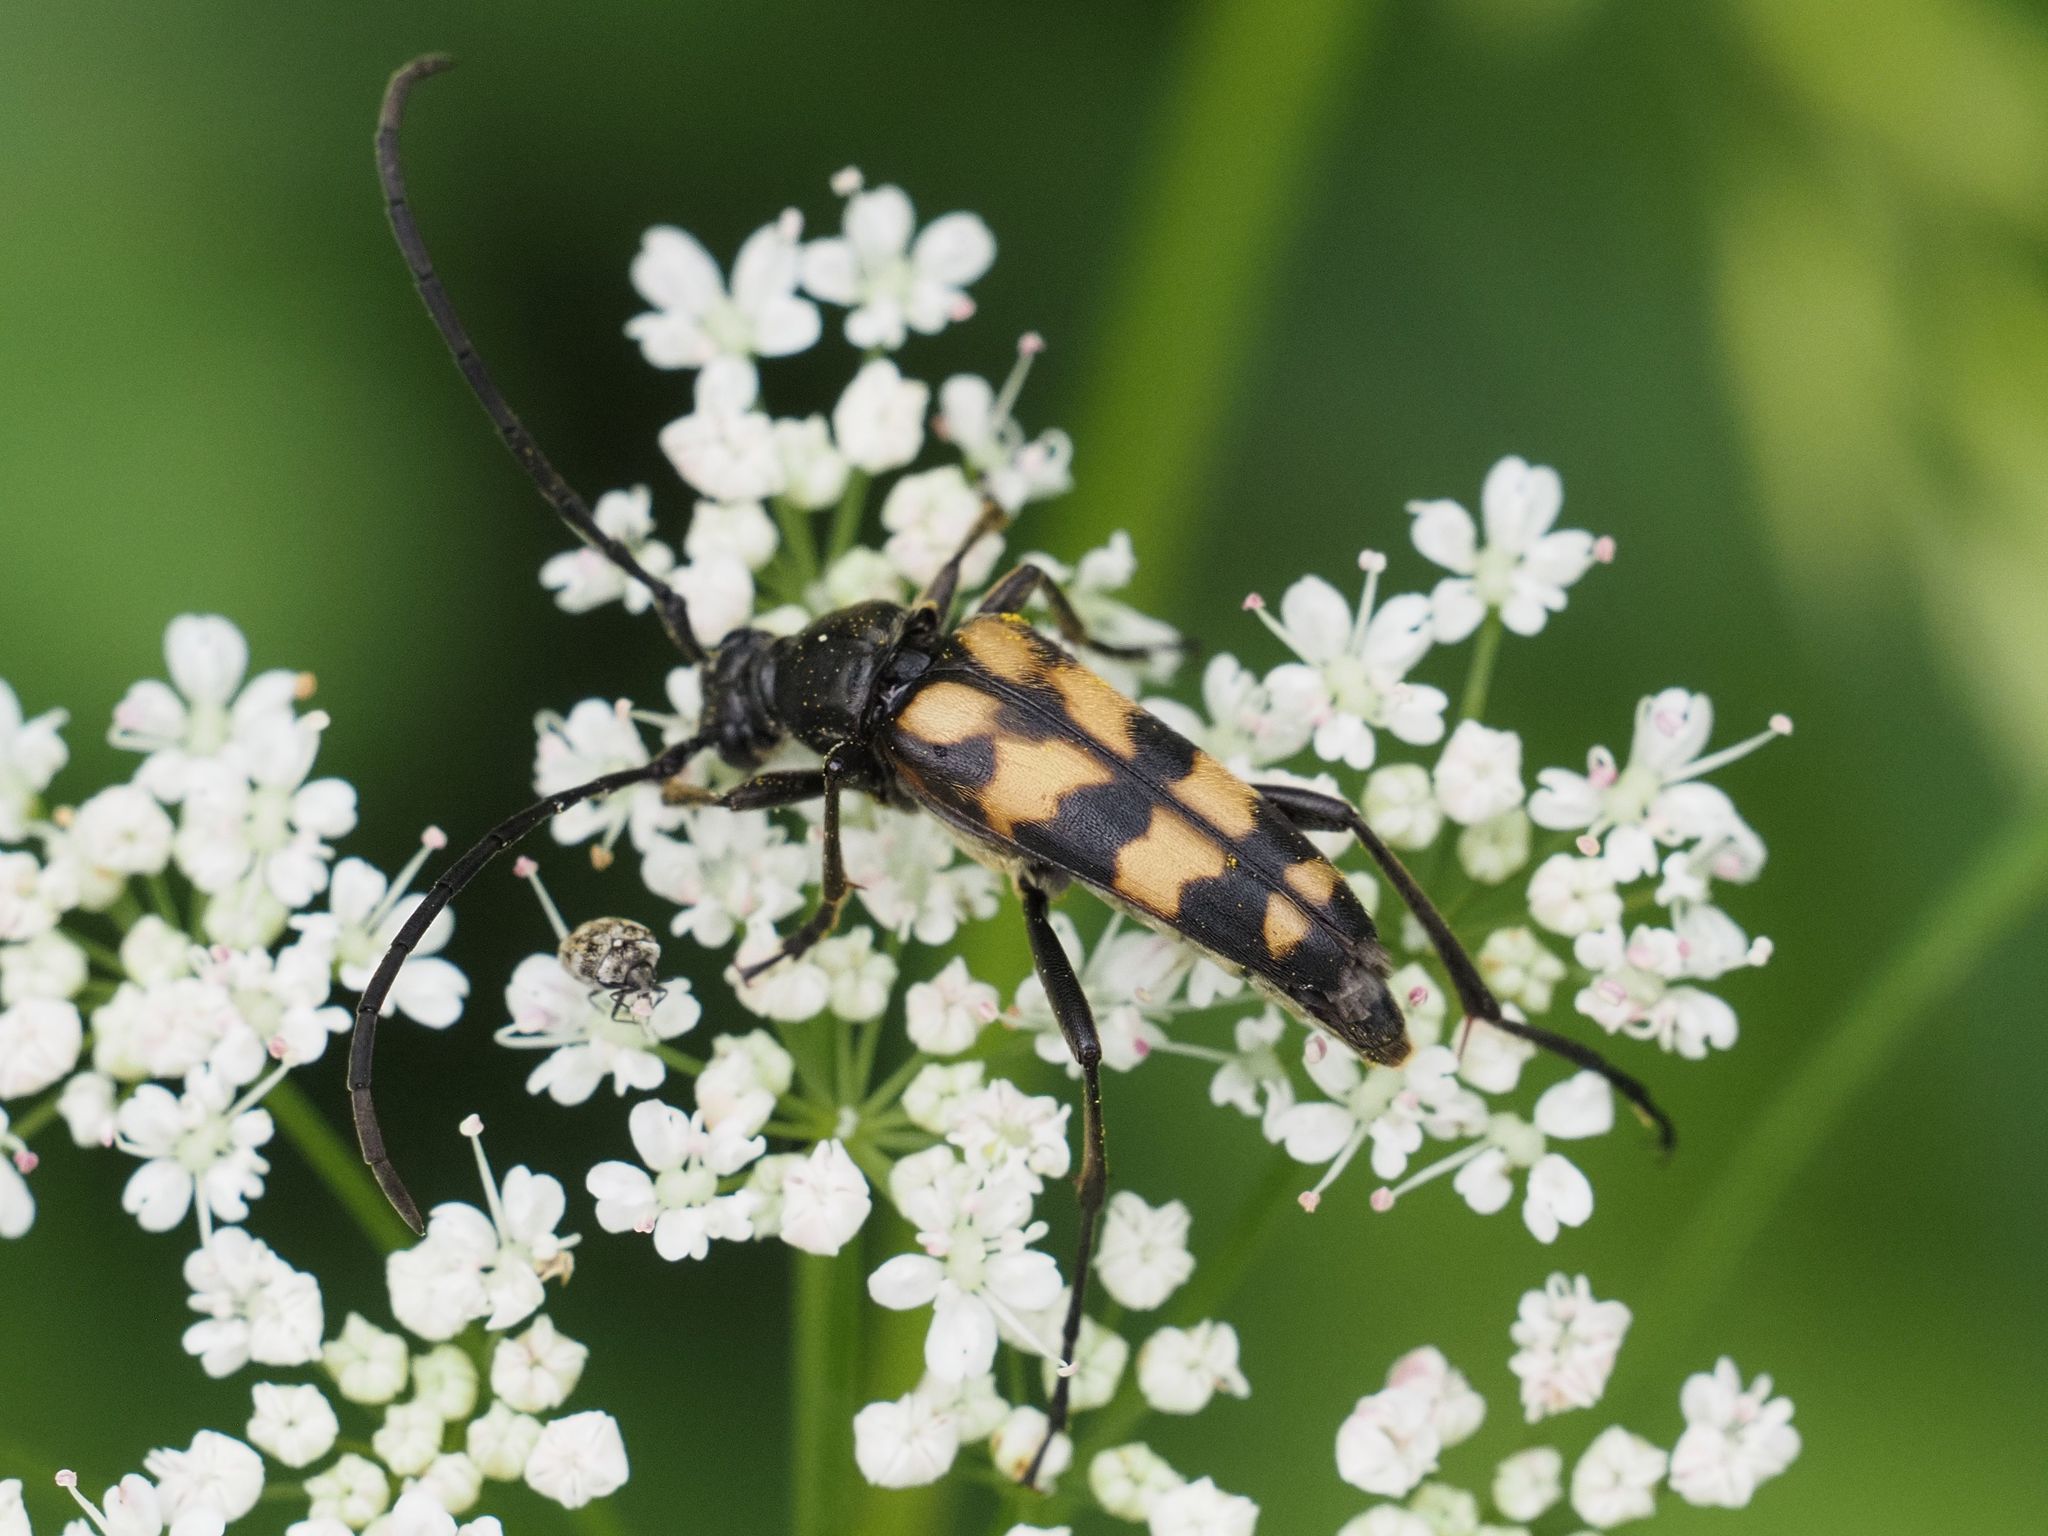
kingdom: Animalia
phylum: Arthropoda
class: Insecta
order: Coleoptera
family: Cerambycidae
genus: Leptura
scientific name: Leptura quadrifasciata
